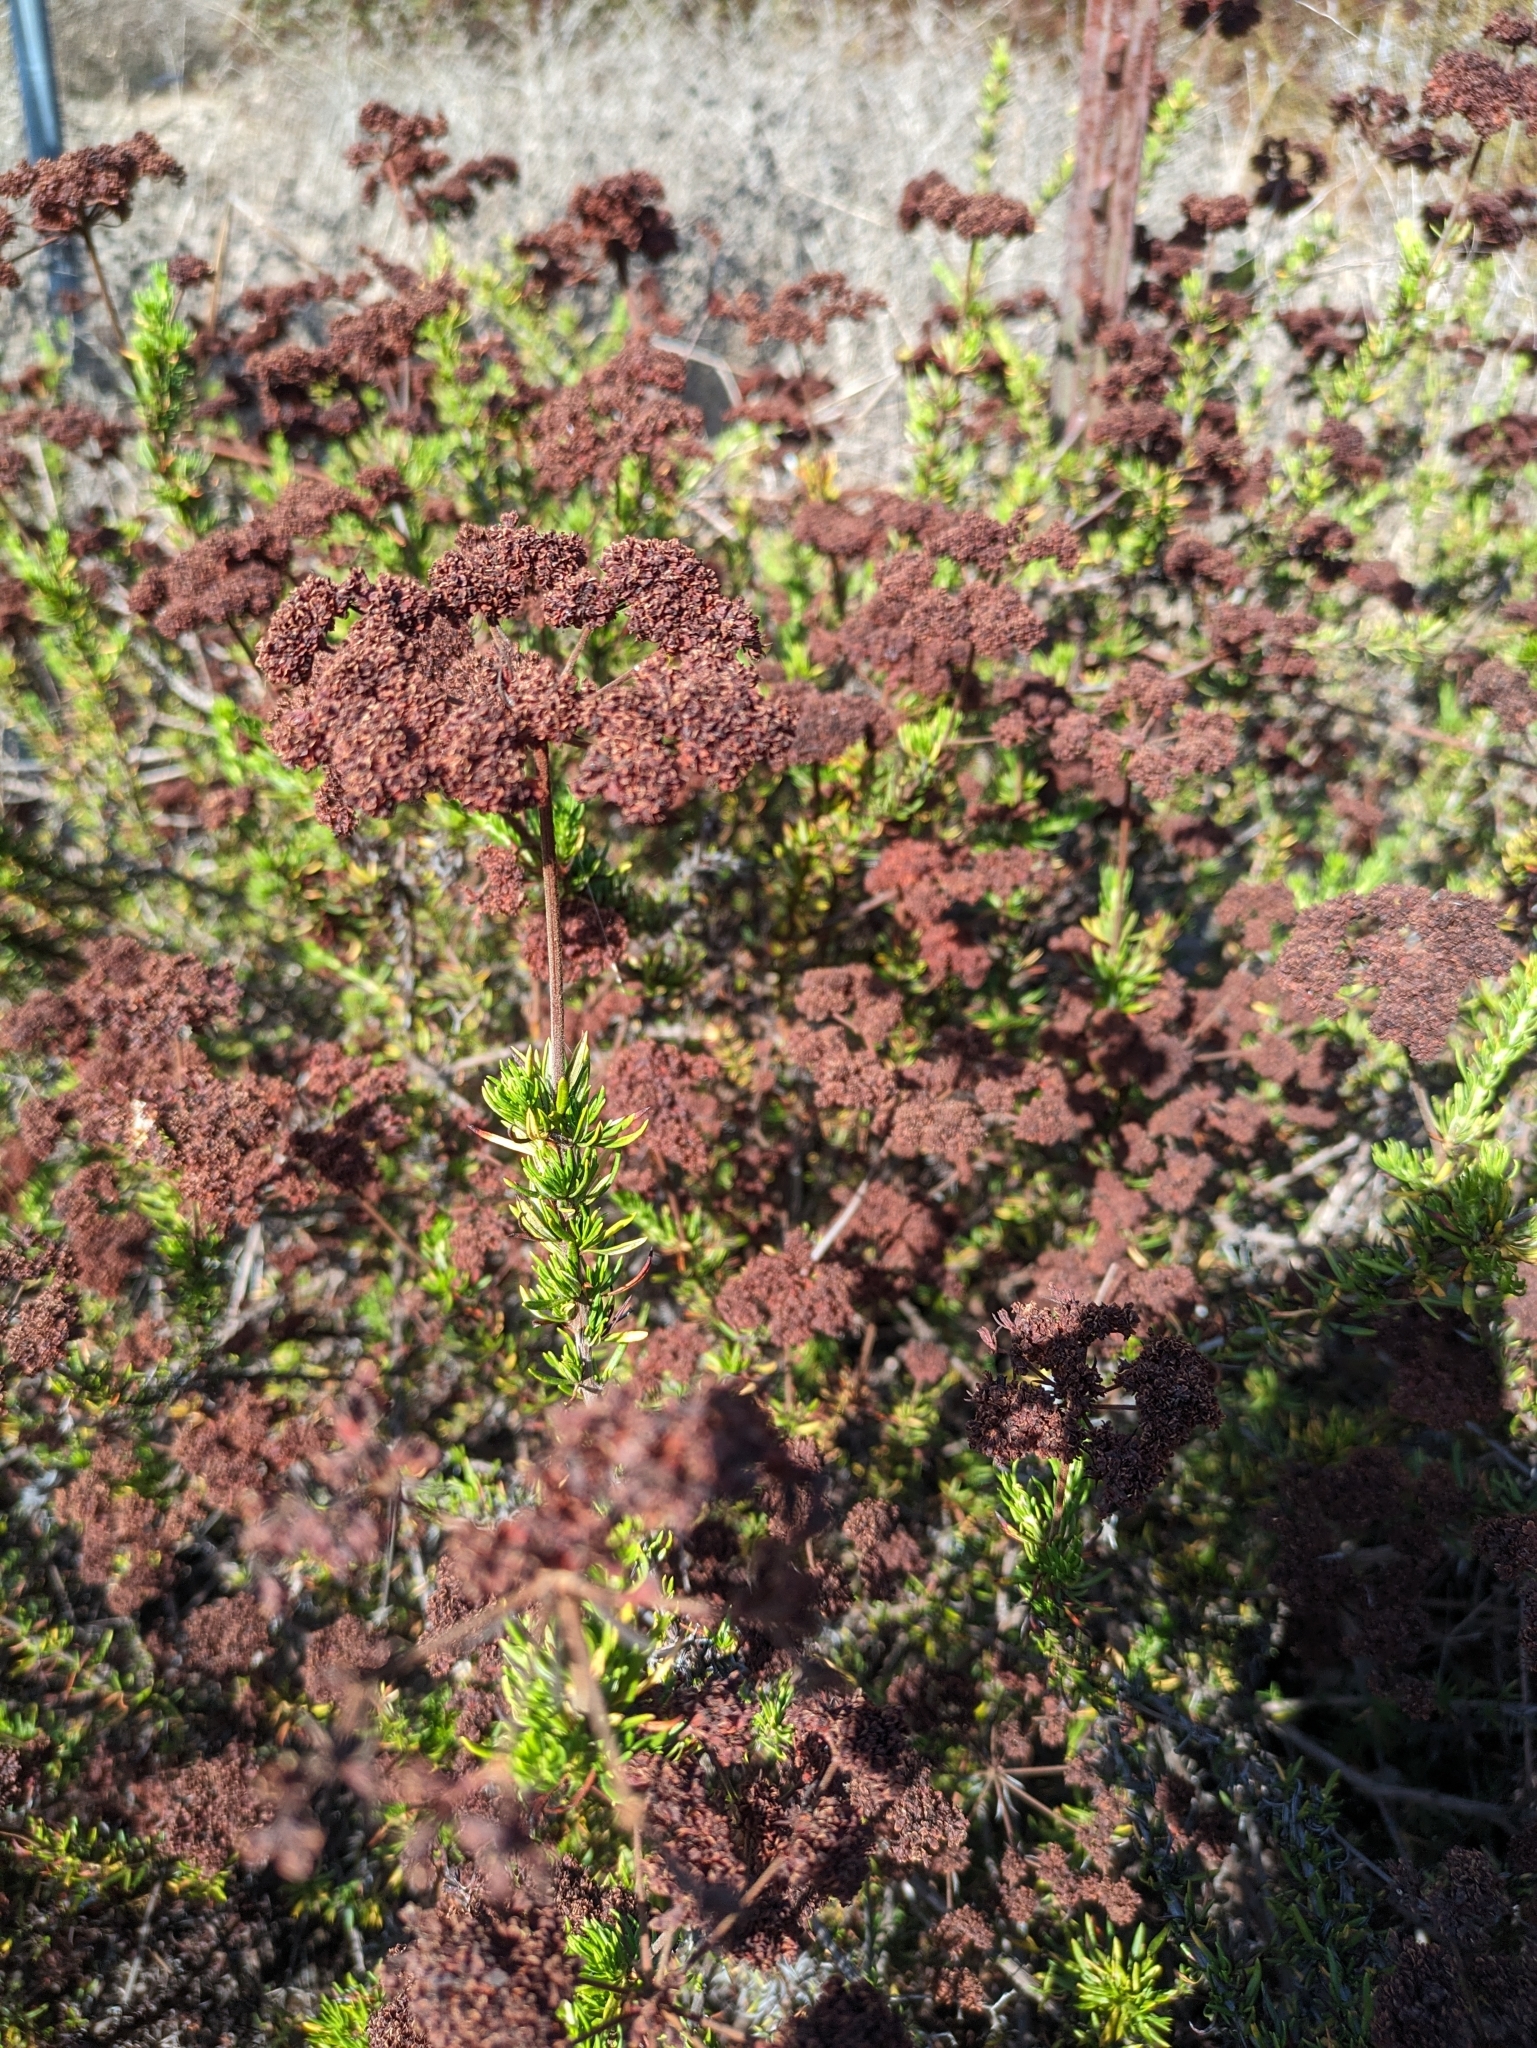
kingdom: Plantae
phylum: Tracheophyta
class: Magnoliopsida
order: Caryophyllales
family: Polygonaceae
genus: Eriogonum
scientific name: Eriogonum fasciculatum
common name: California wild buckwheat
